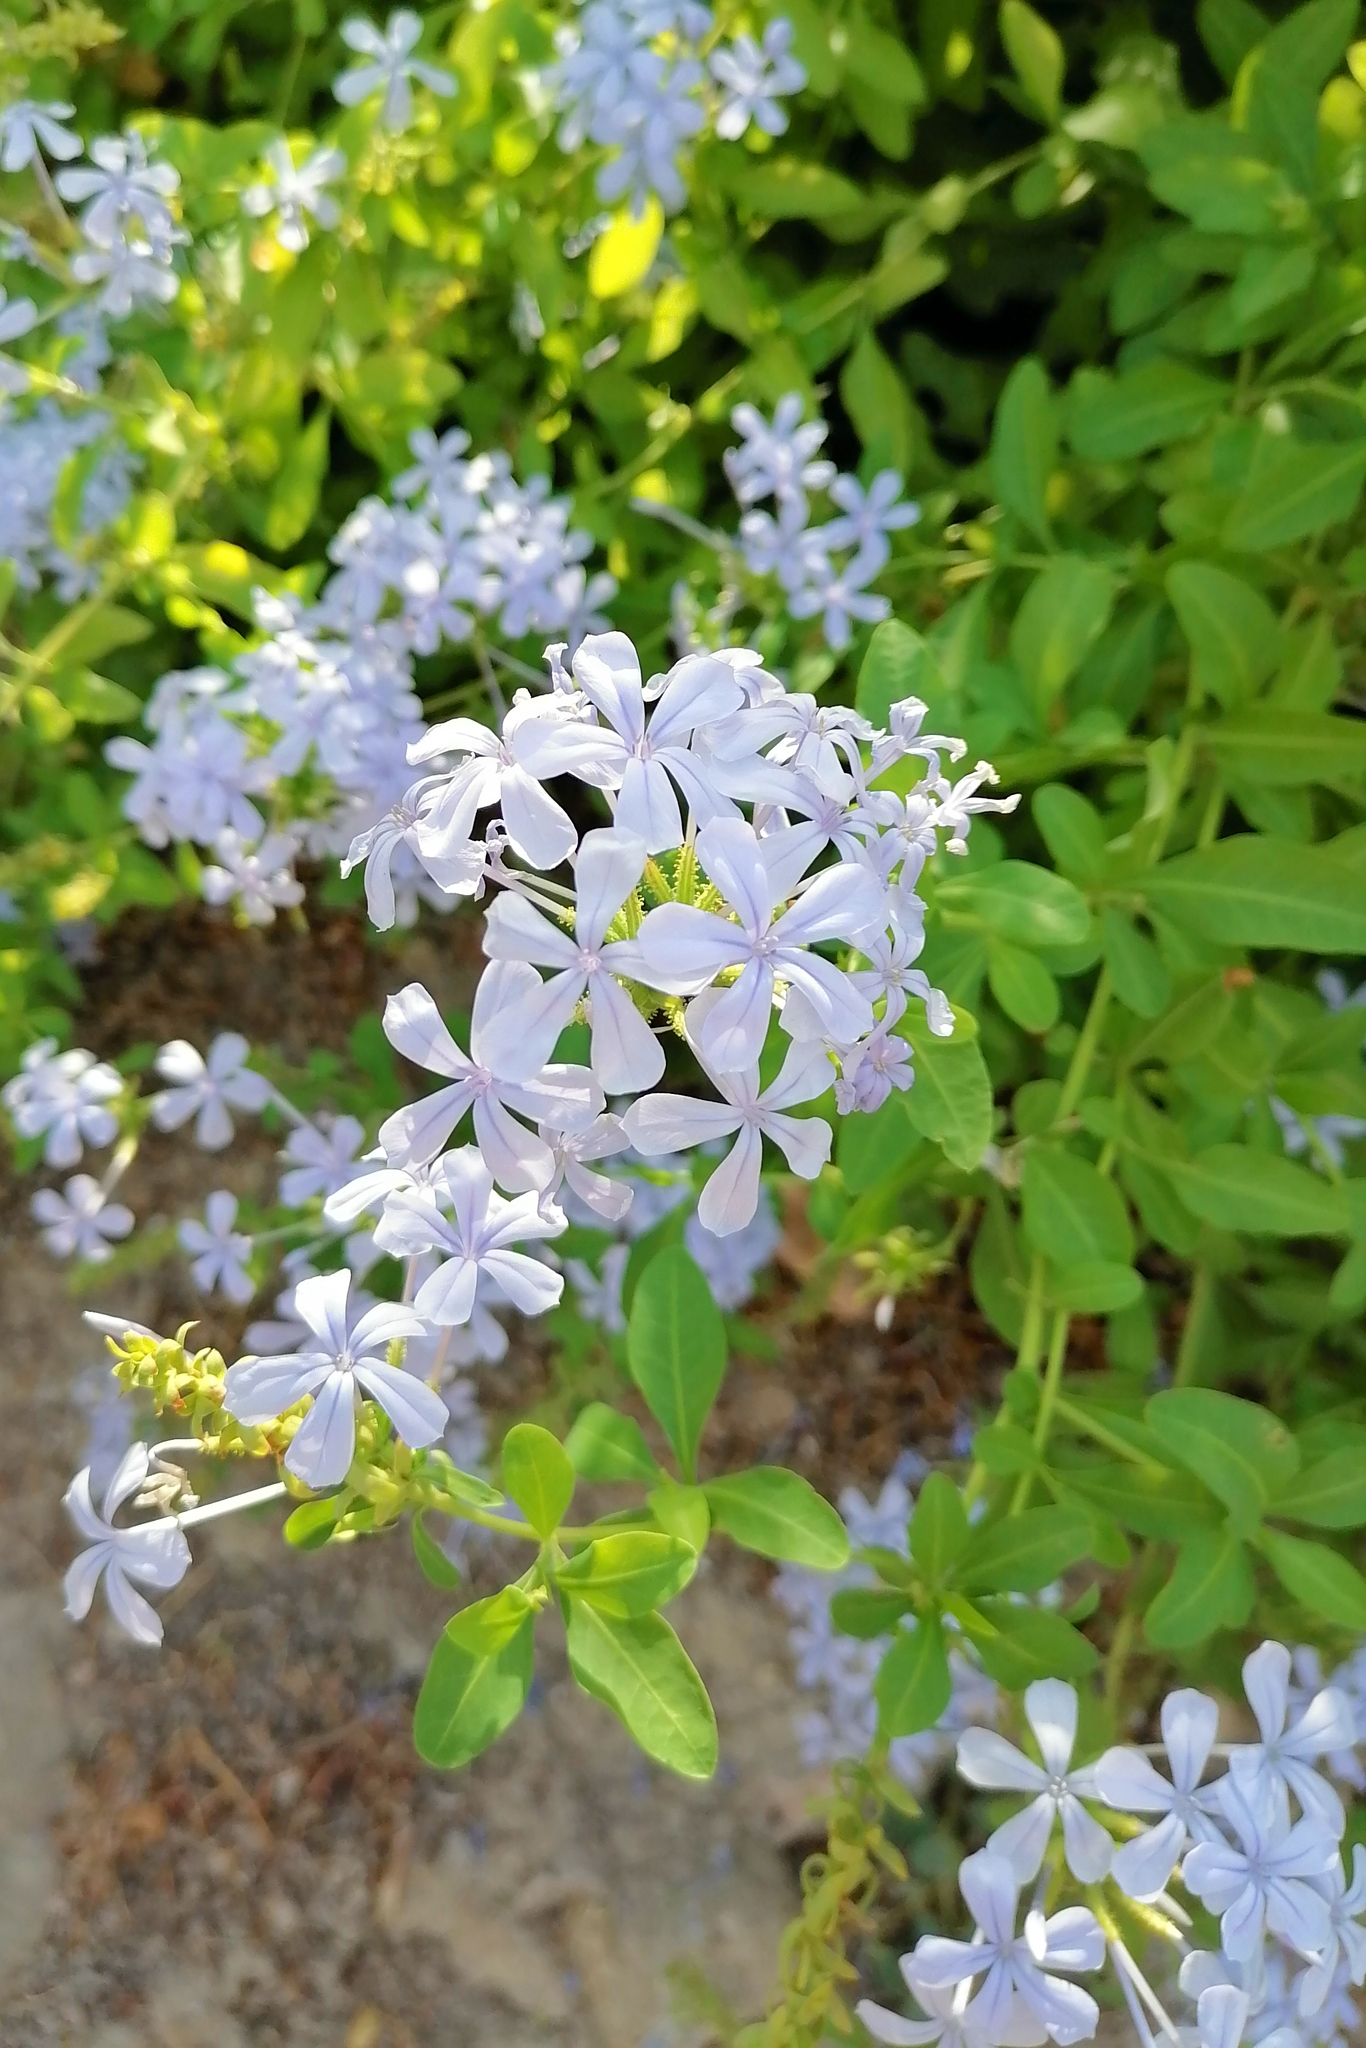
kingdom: Plantae
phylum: Tracheophyta
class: Magnoliopsida
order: Caryophyllales
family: Plumbaginaceae
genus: Plumbago
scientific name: Plumbago auriculata
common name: Cape leadwort
